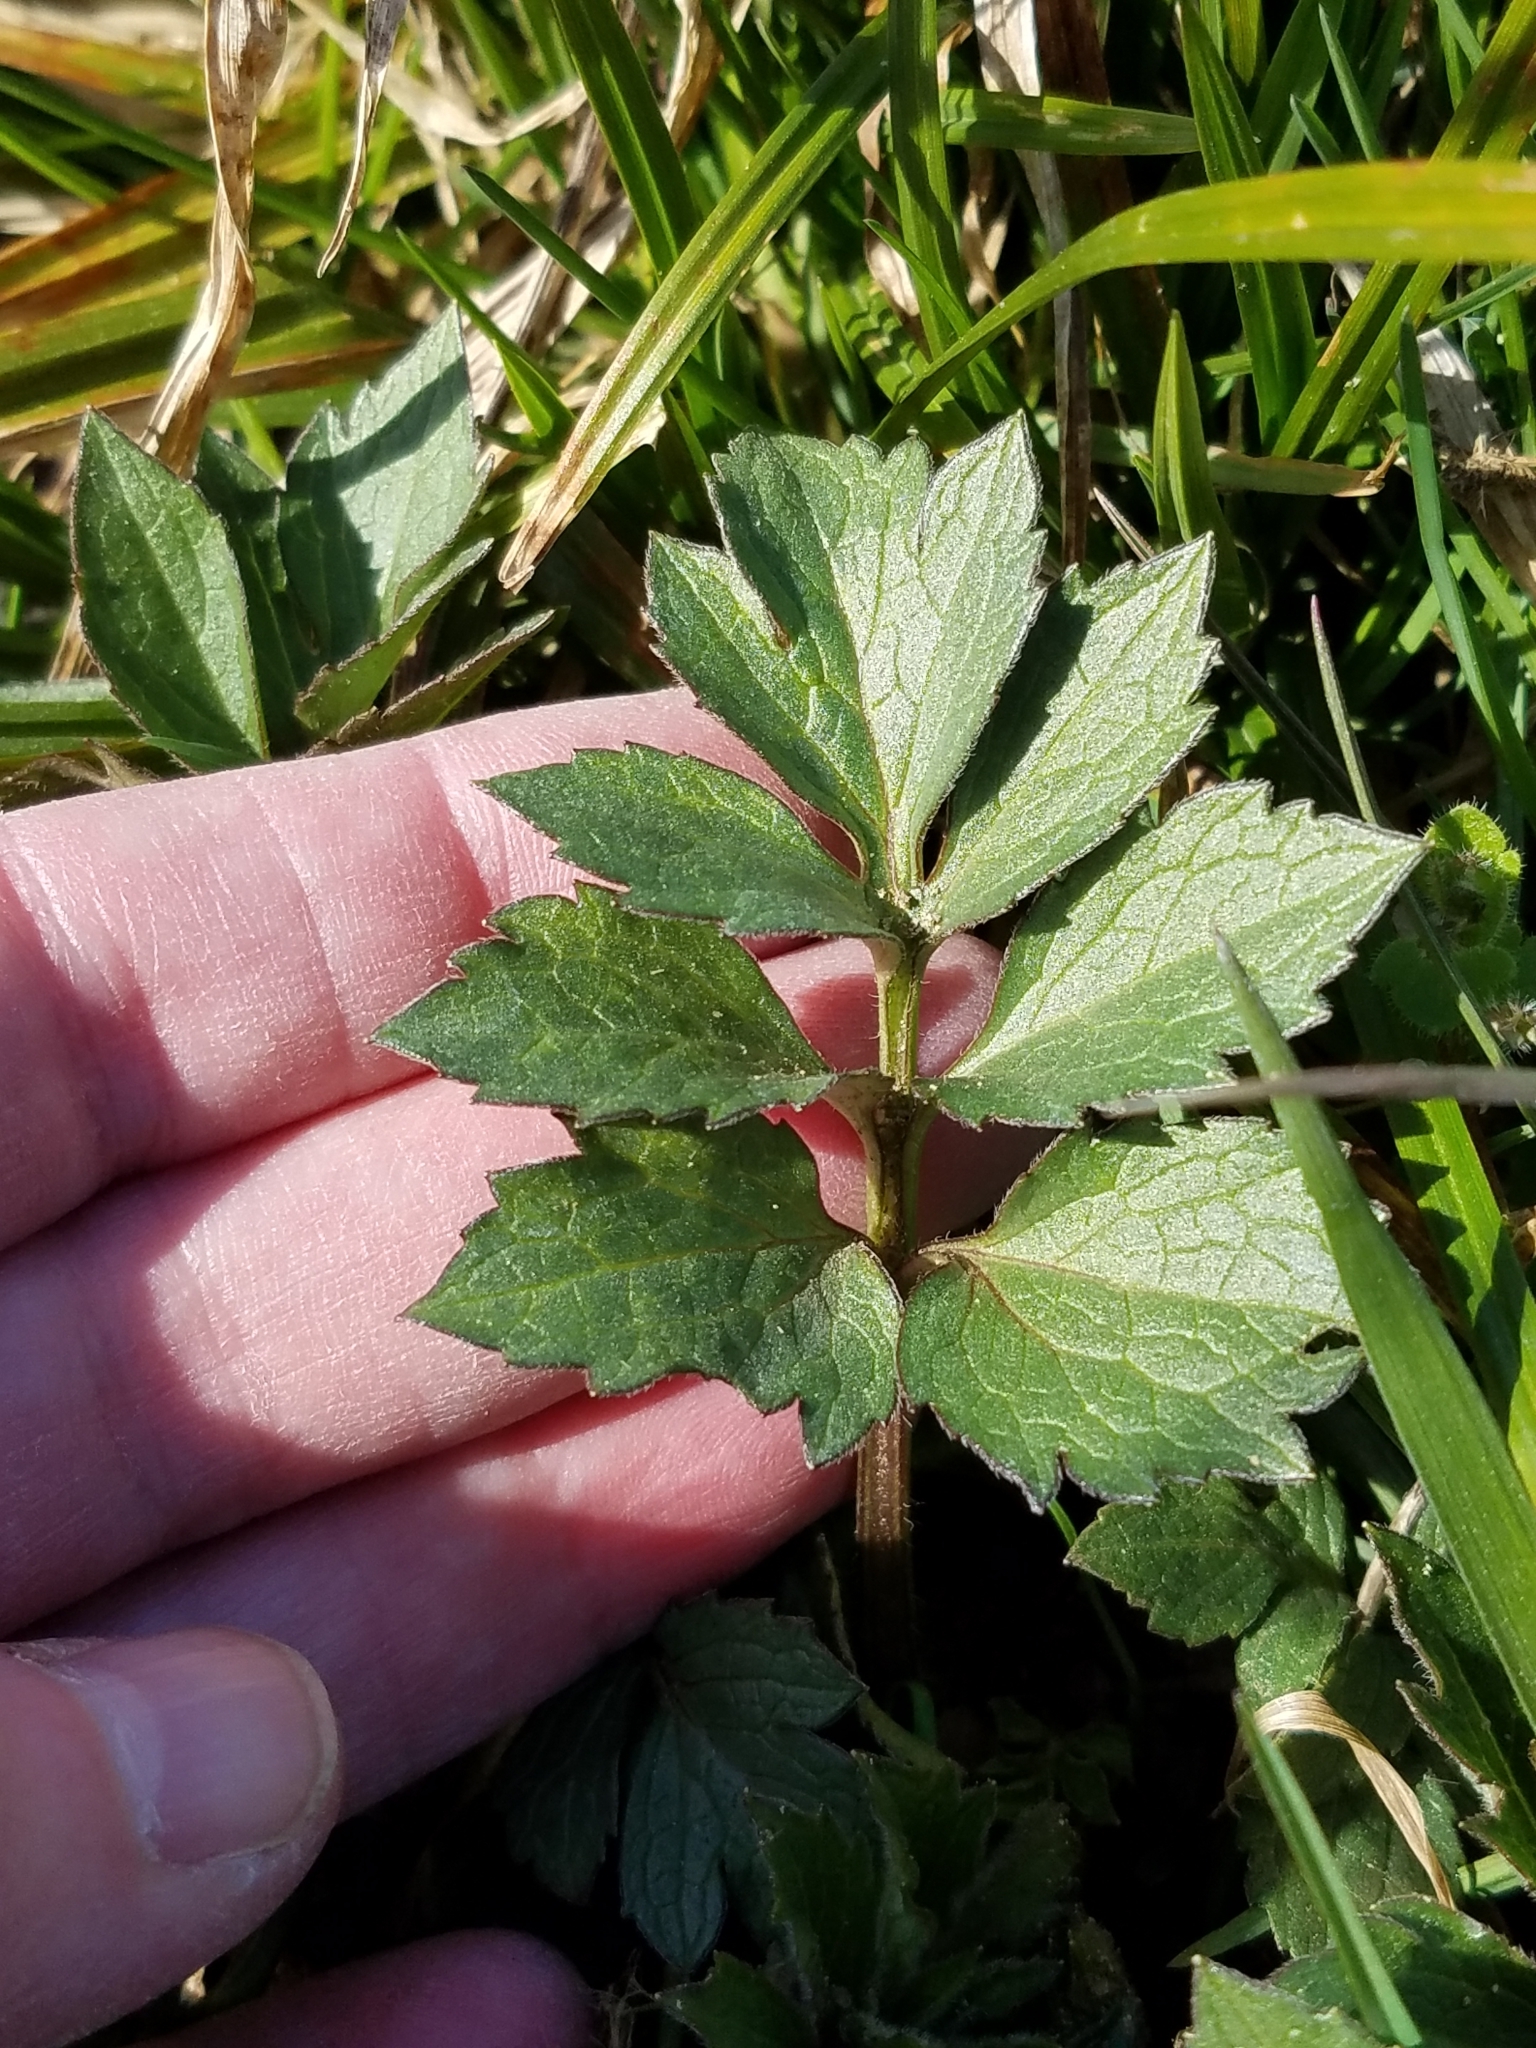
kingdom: Plantae
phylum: Tracheophyta
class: Magnoliopsida
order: Asterales
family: Asteraceae
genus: Rudbeckia
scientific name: Rudbeckia laciniata
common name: Coneflower
